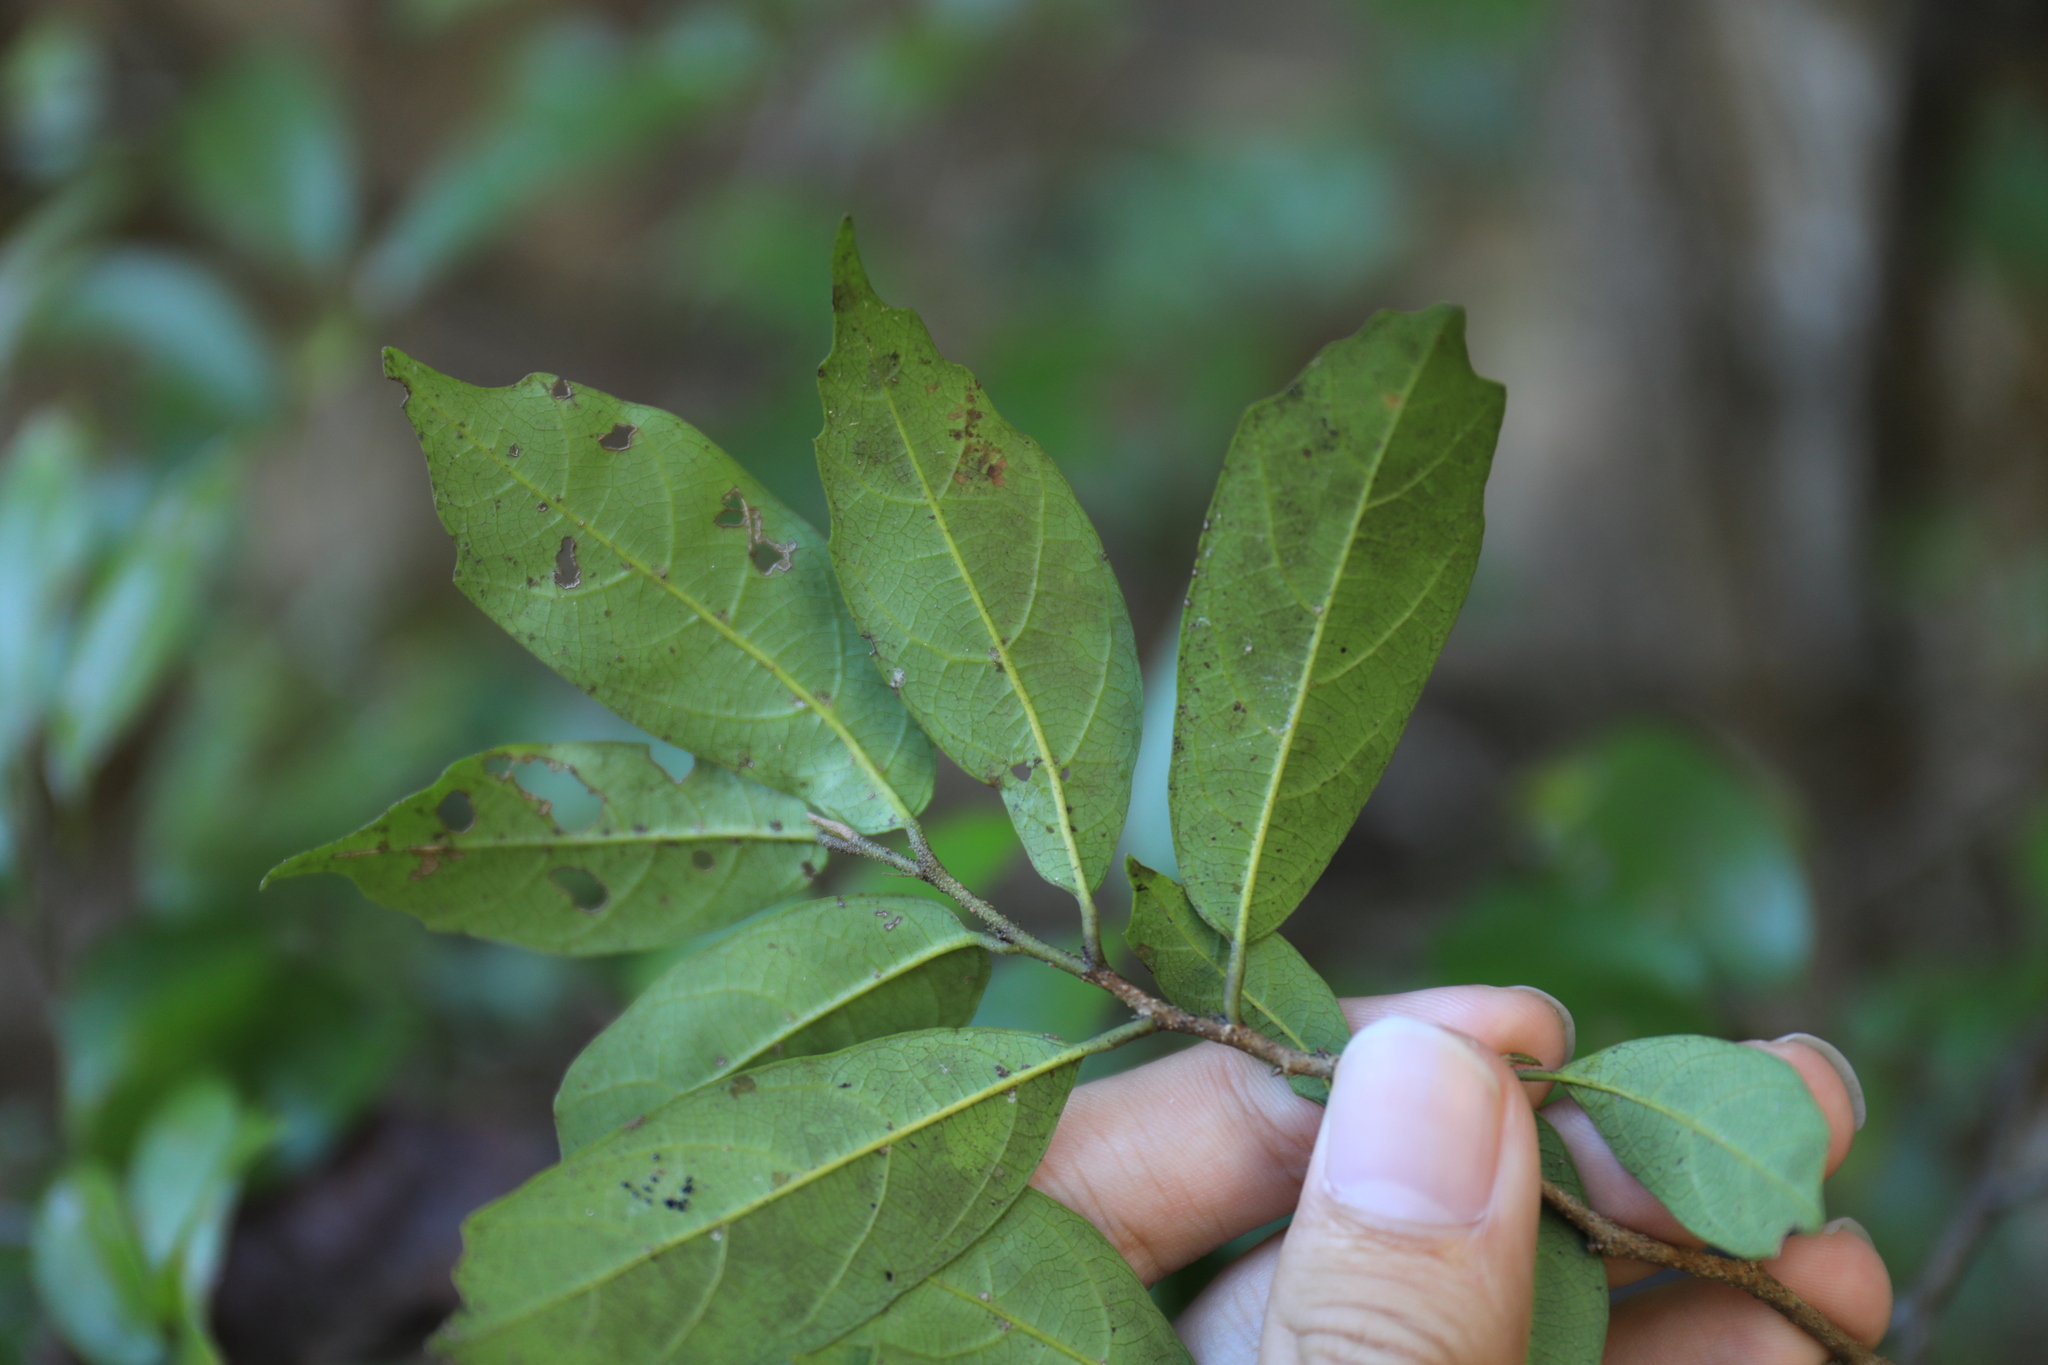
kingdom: Plantae
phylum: Tracheophyta
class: Magnoliopsida
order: Saxifragales
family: Hamamelidaceae
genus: Eustigma
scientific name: Eustigma oblongifolium
